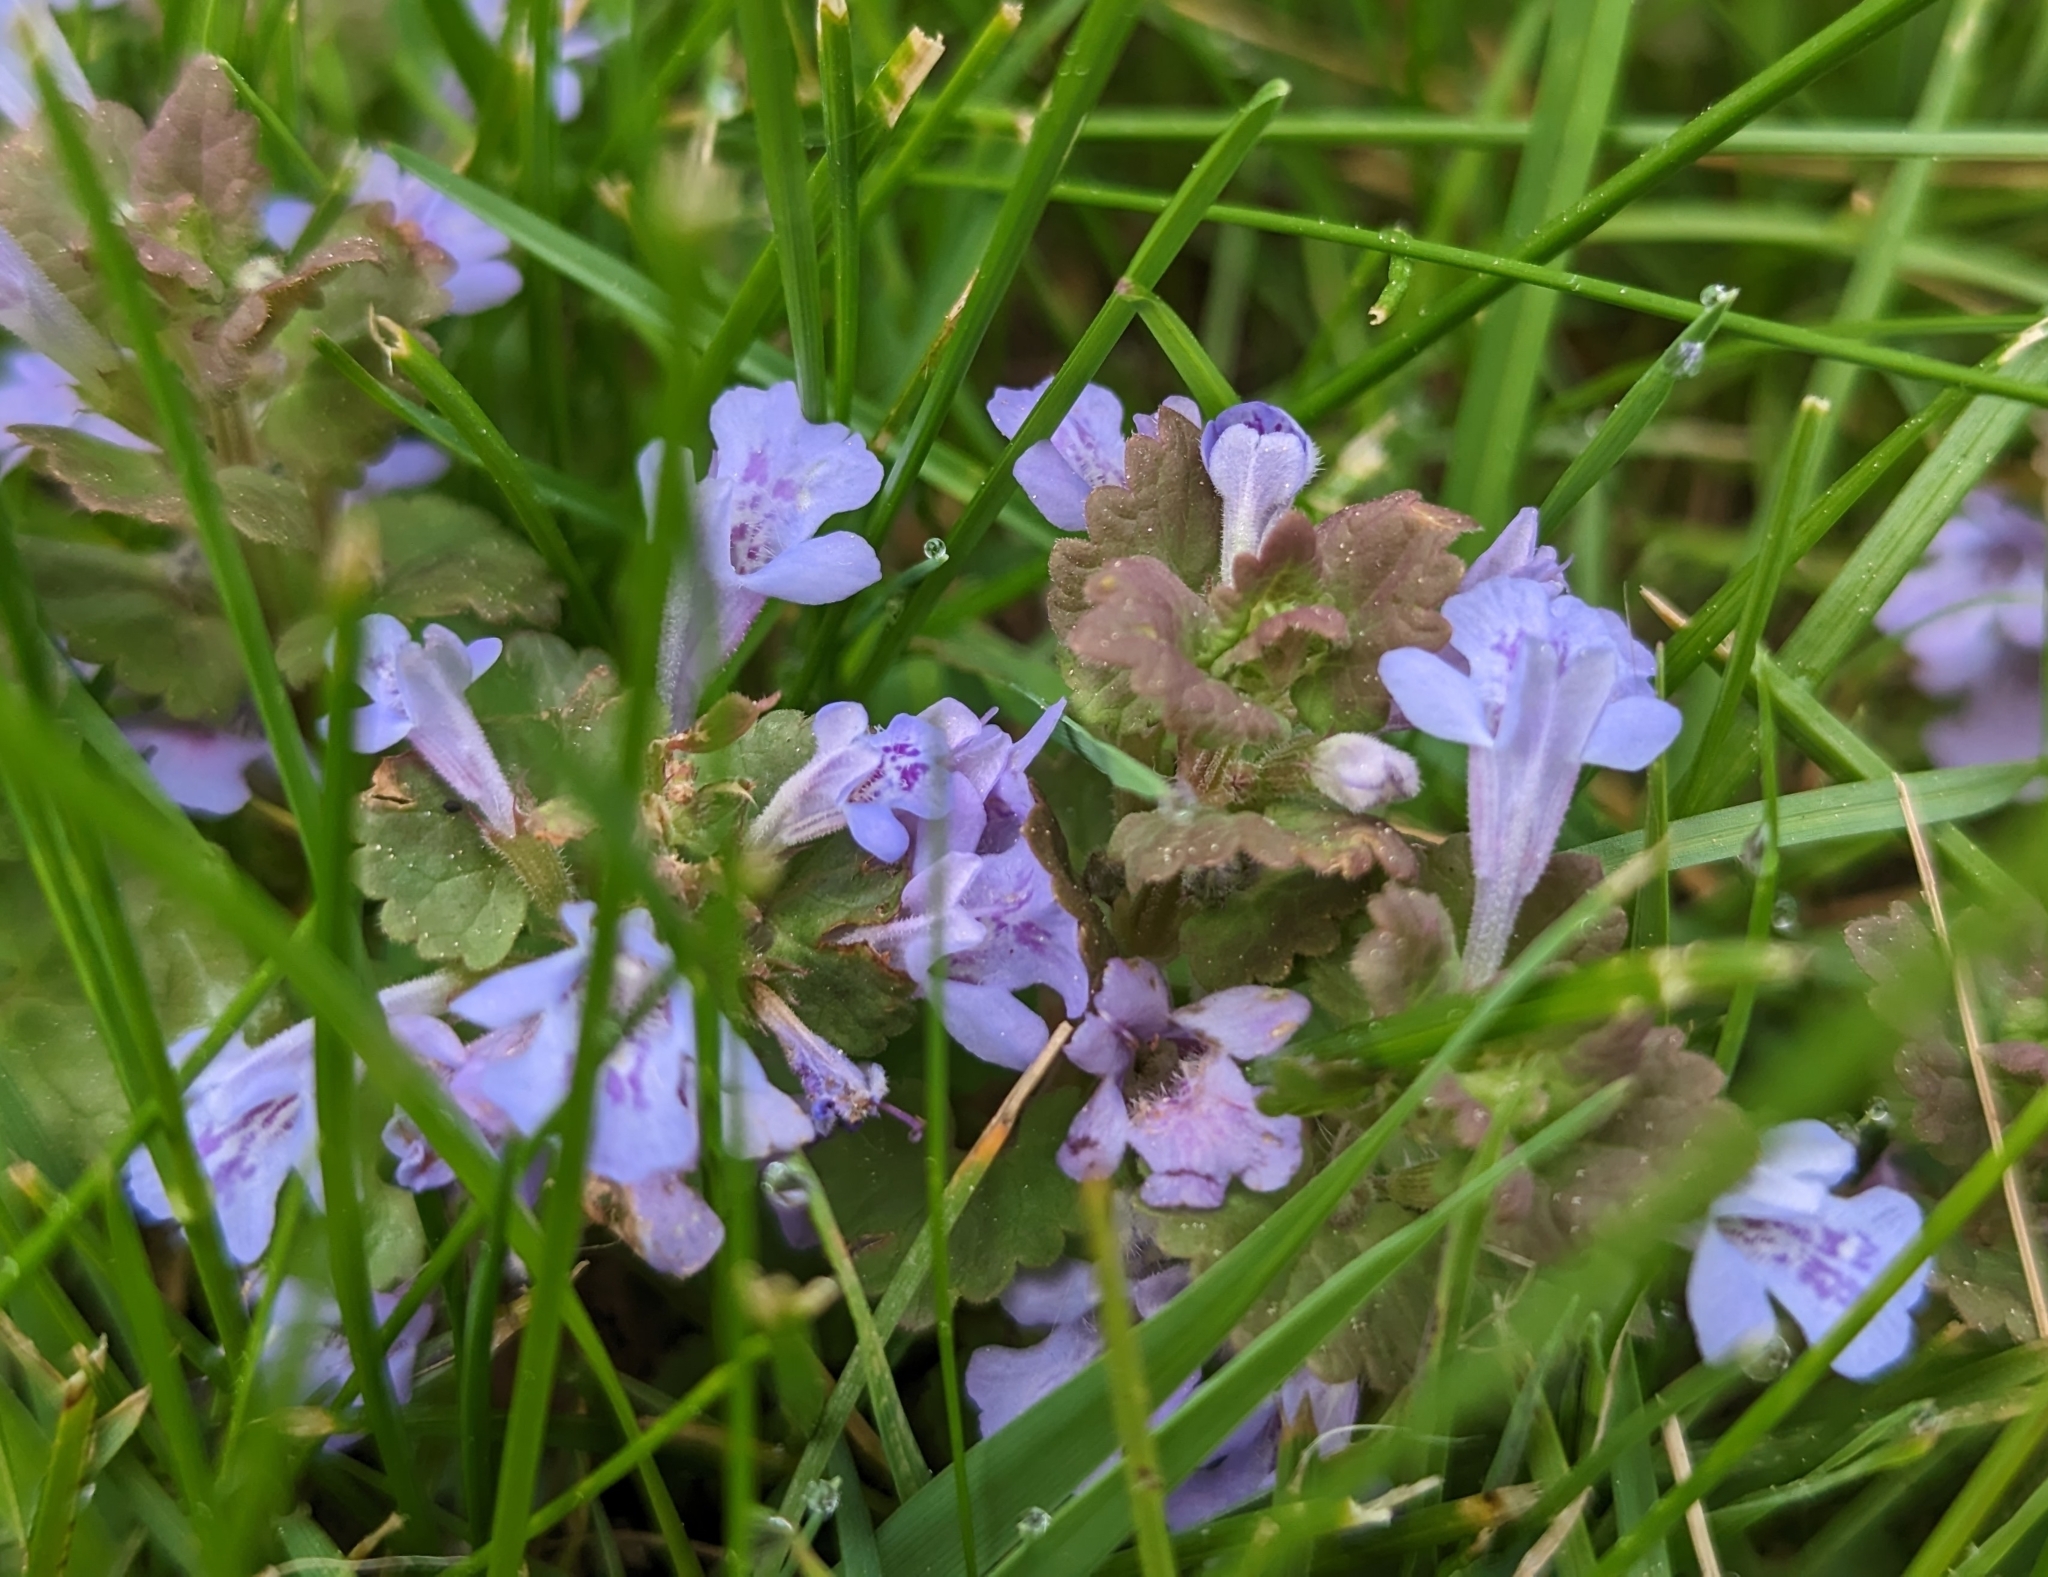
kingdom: Plantae
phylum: Tracheophyta
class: Magnoliopsida
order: Lamiales
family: Lamiaceae
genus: Glechoma
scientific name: Glechoma hederacea
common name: Ground ivy
